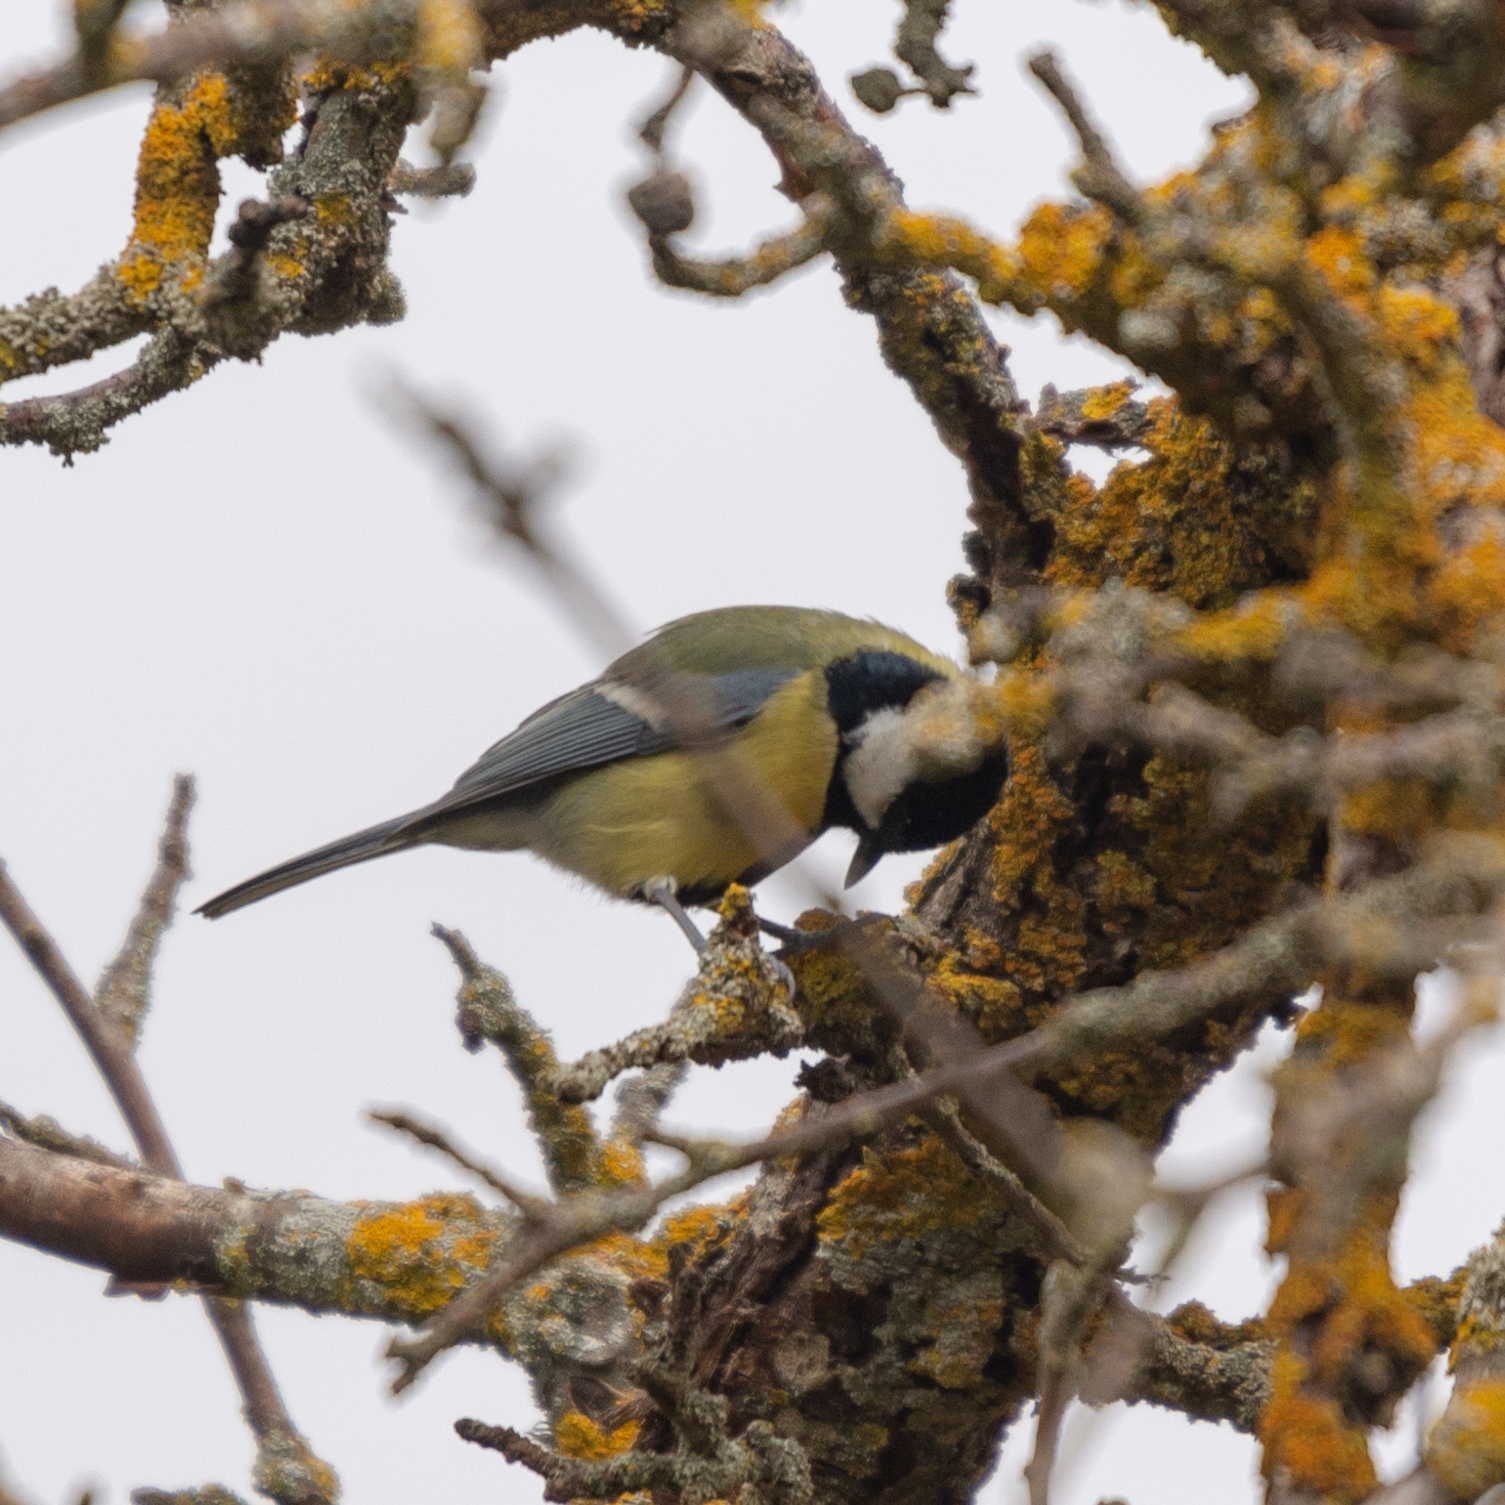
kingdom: Animalia
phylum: Chordata
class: Aves
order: Passeriformes
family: Paridae
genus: Parus
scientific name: Parus major
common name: Great tit
